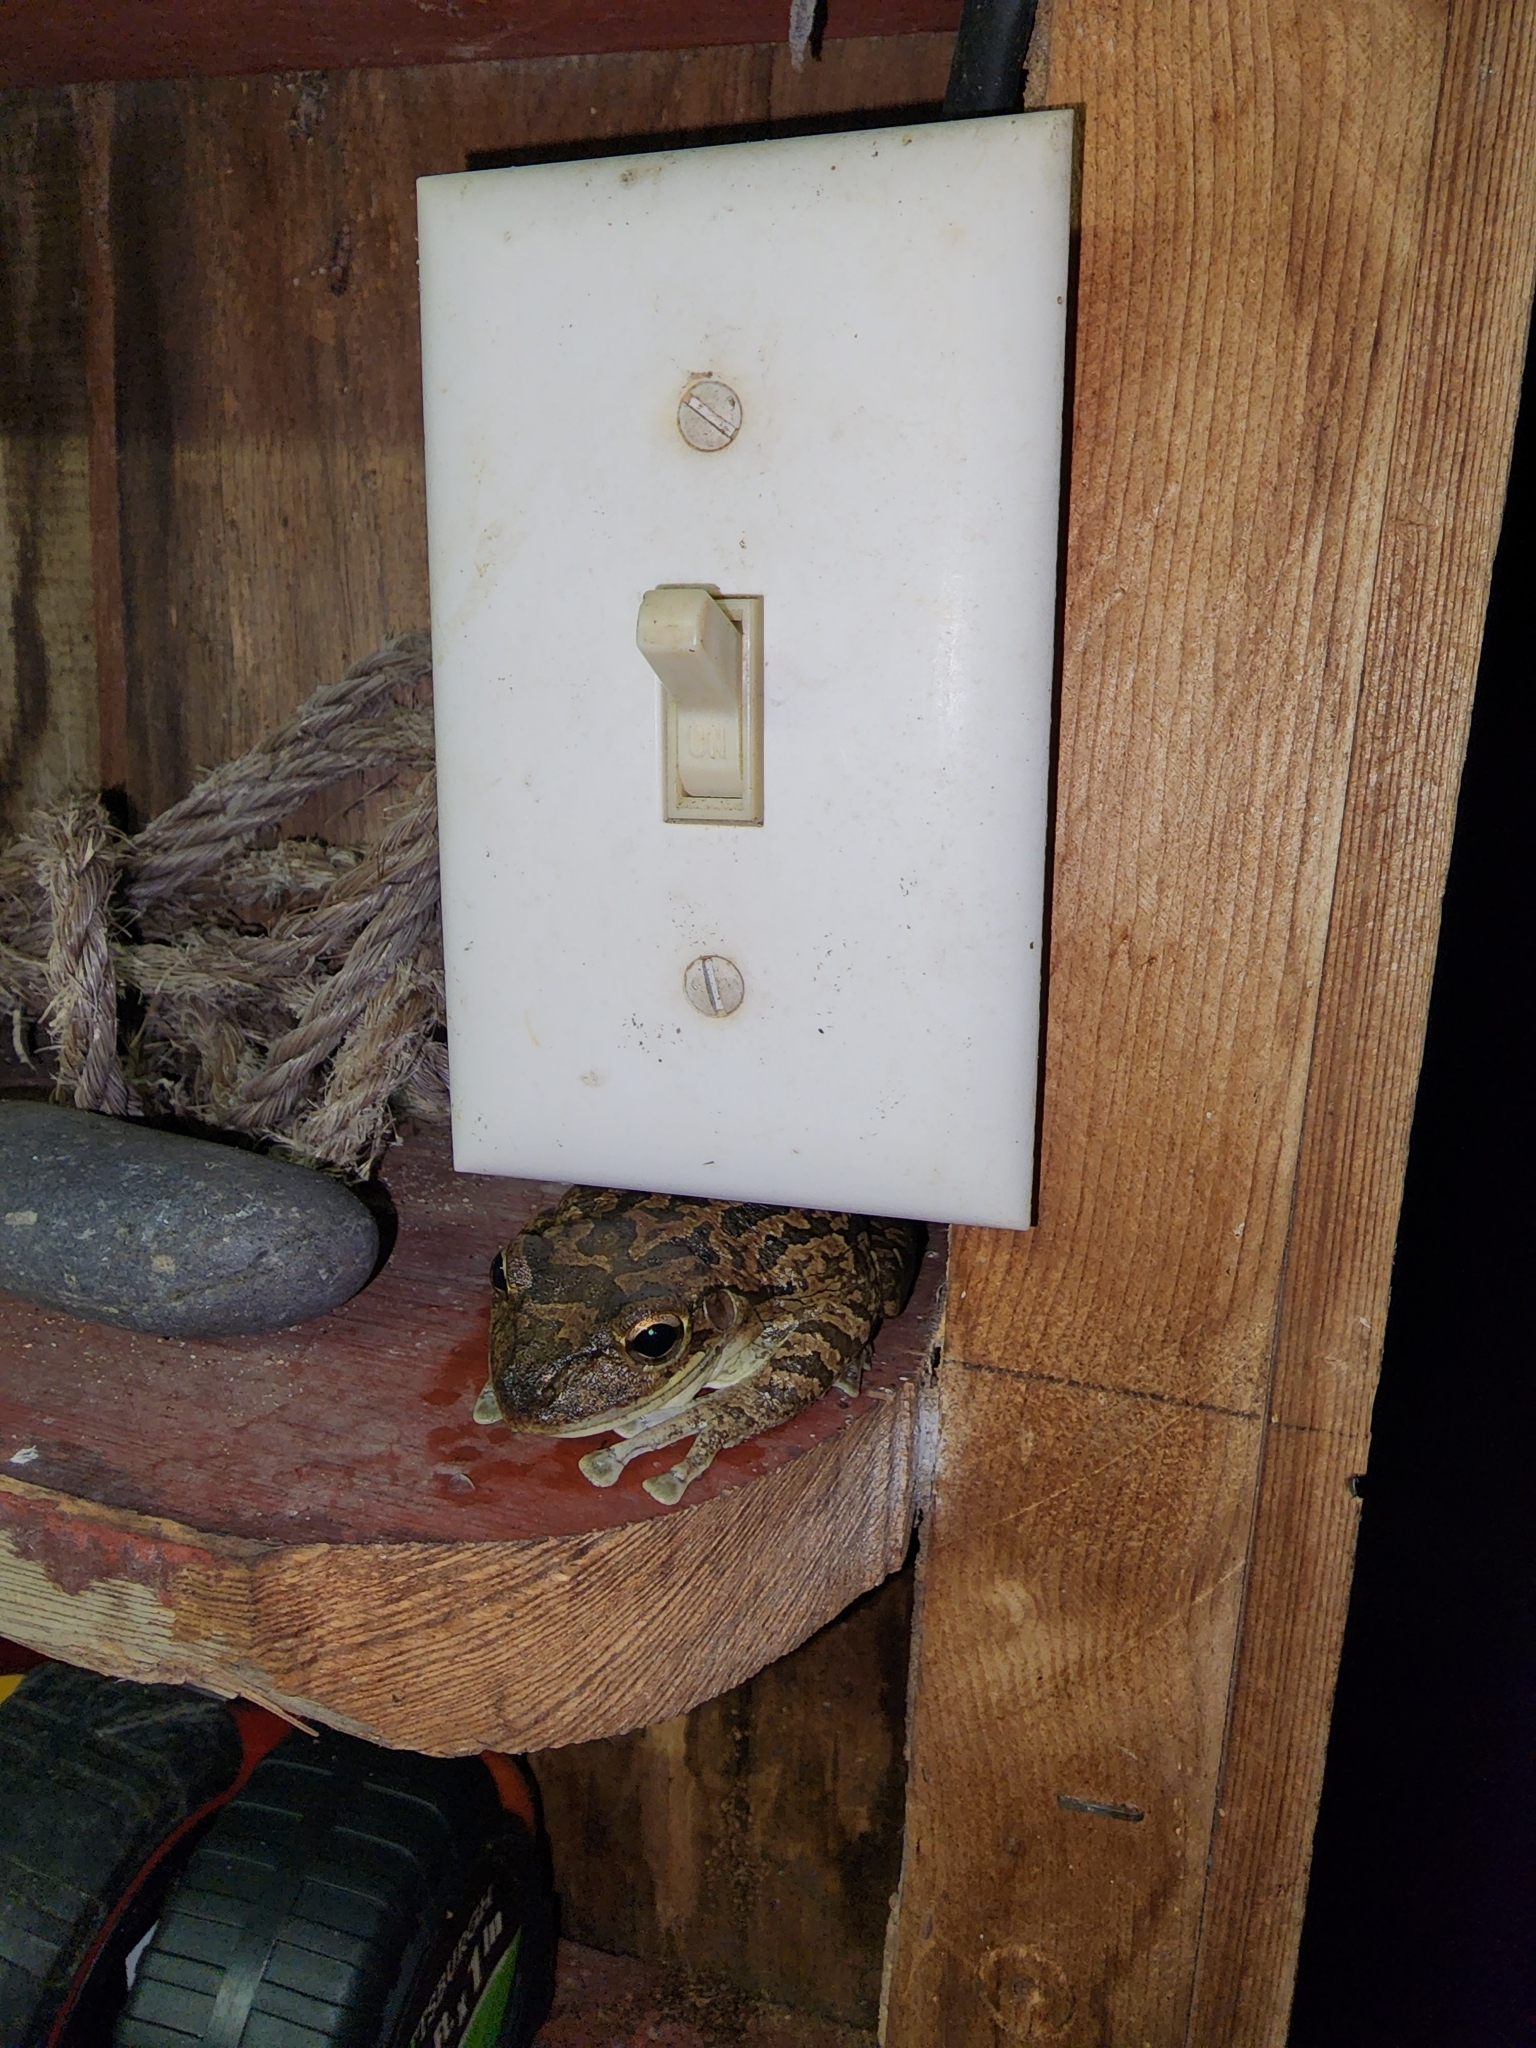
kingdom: Animalia
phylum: Chordata
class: Amphibia
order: Anura
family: Hylidae
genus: Osteopilus
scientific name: Osteopilus septentrionalis
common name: Cuban treefrog
